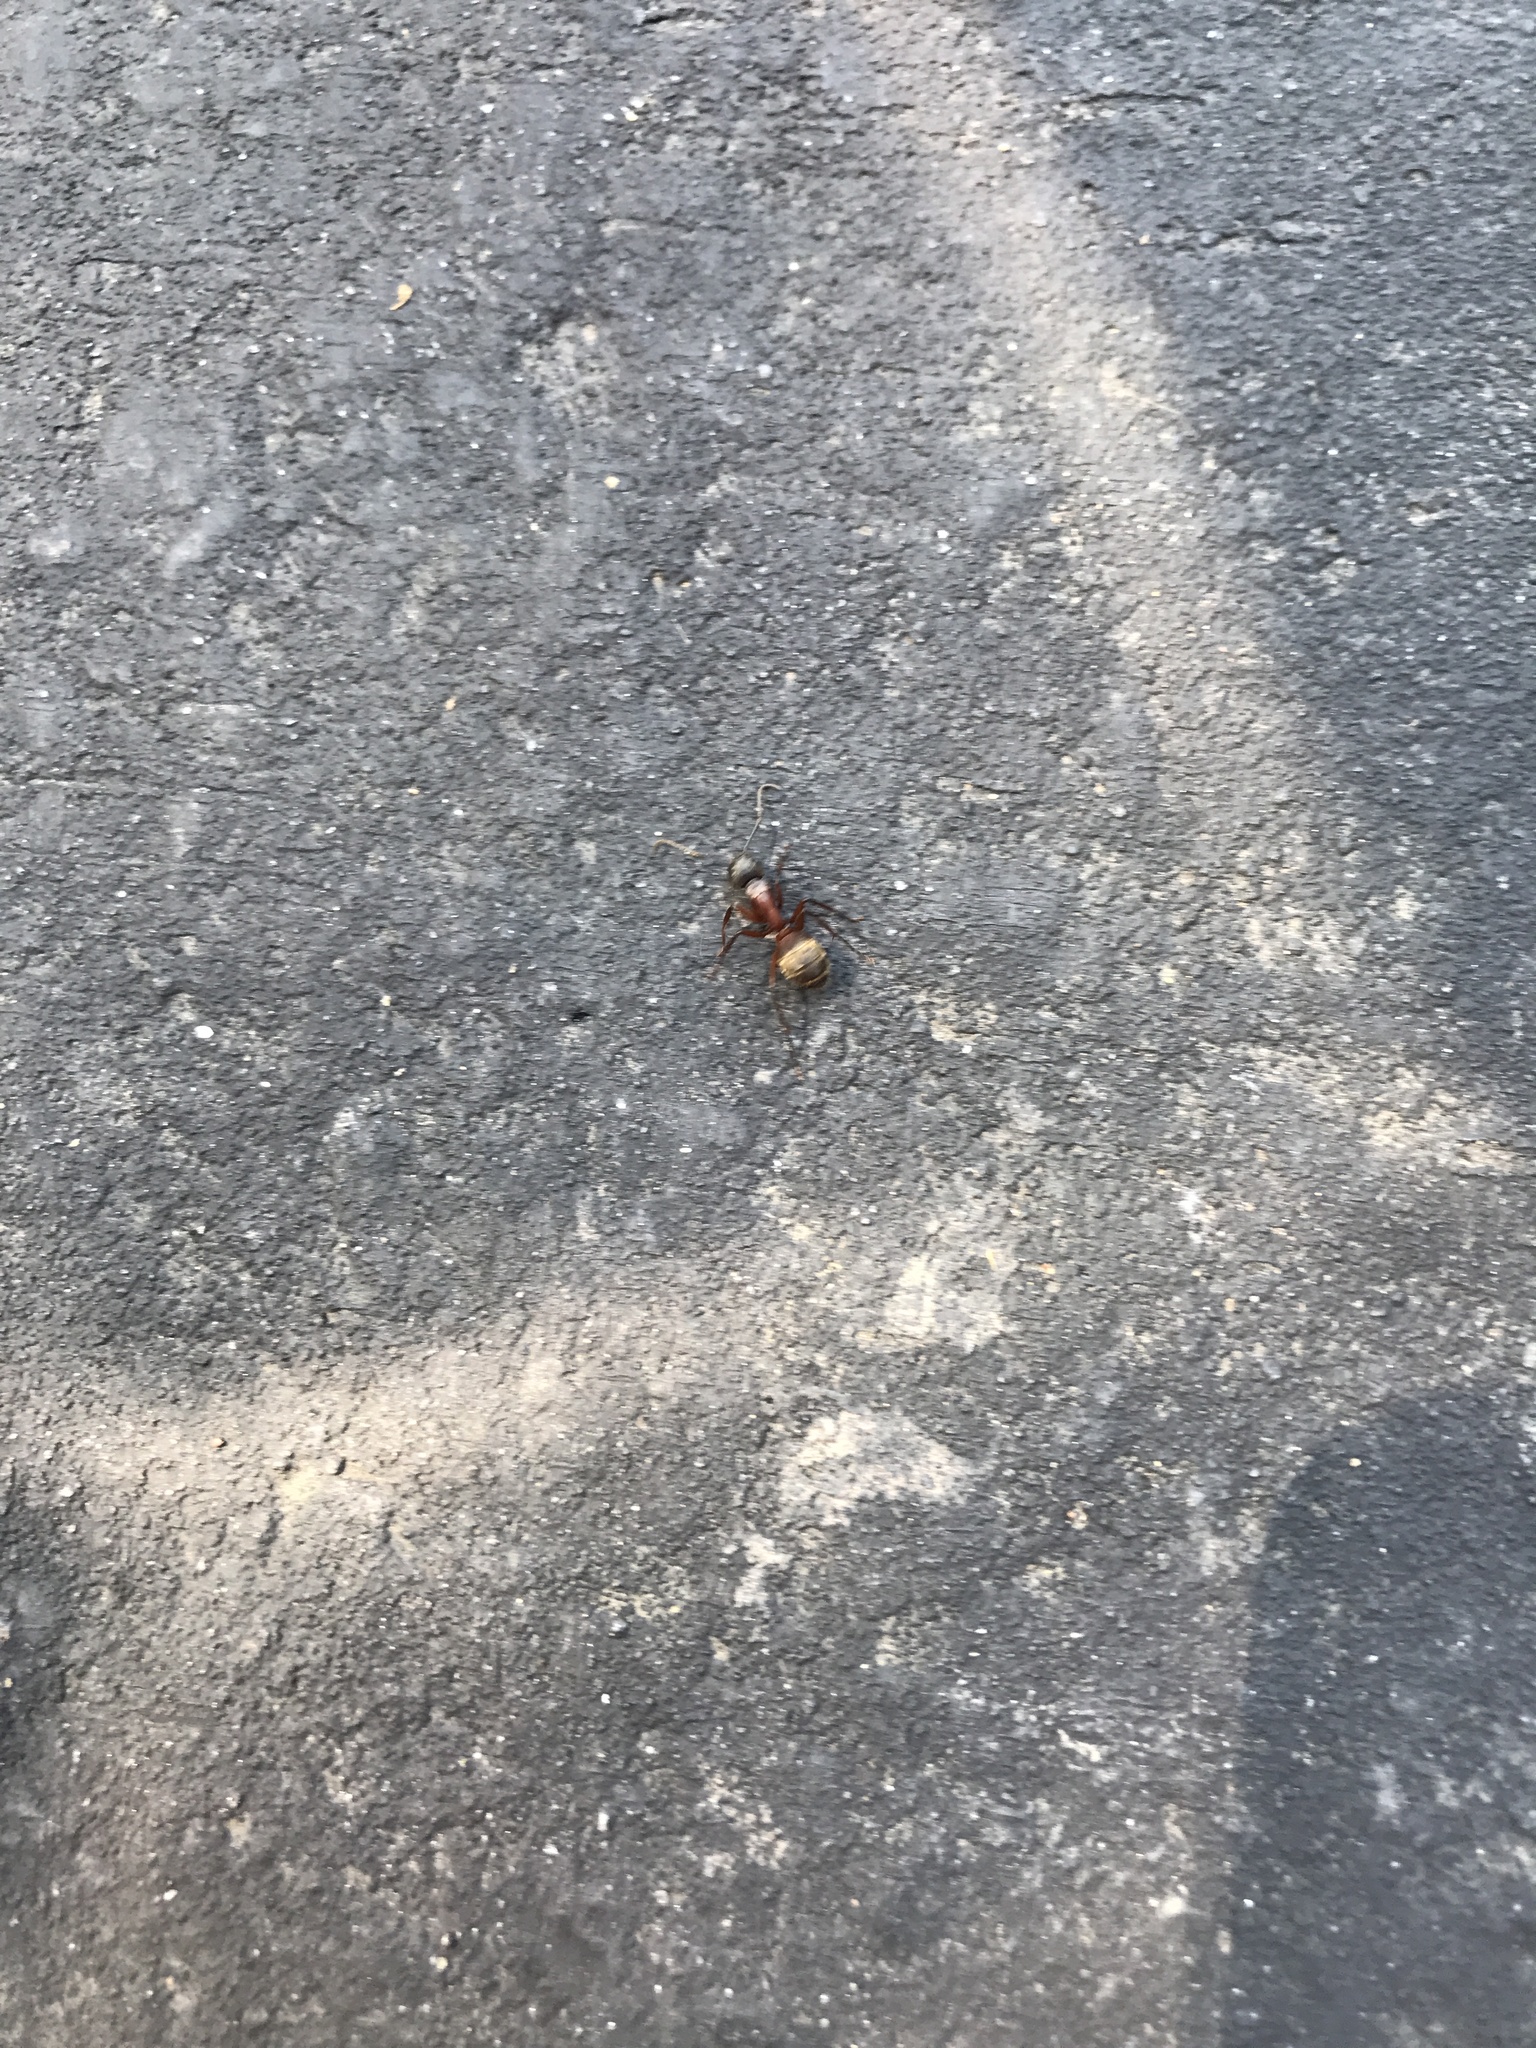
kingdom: Animalia
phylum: Arthropoda
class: Insecta
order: Hymenoptera
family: Formicidae
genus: Camponotus
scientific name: Camponotus chromaiodes
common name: Red carpenter ant
